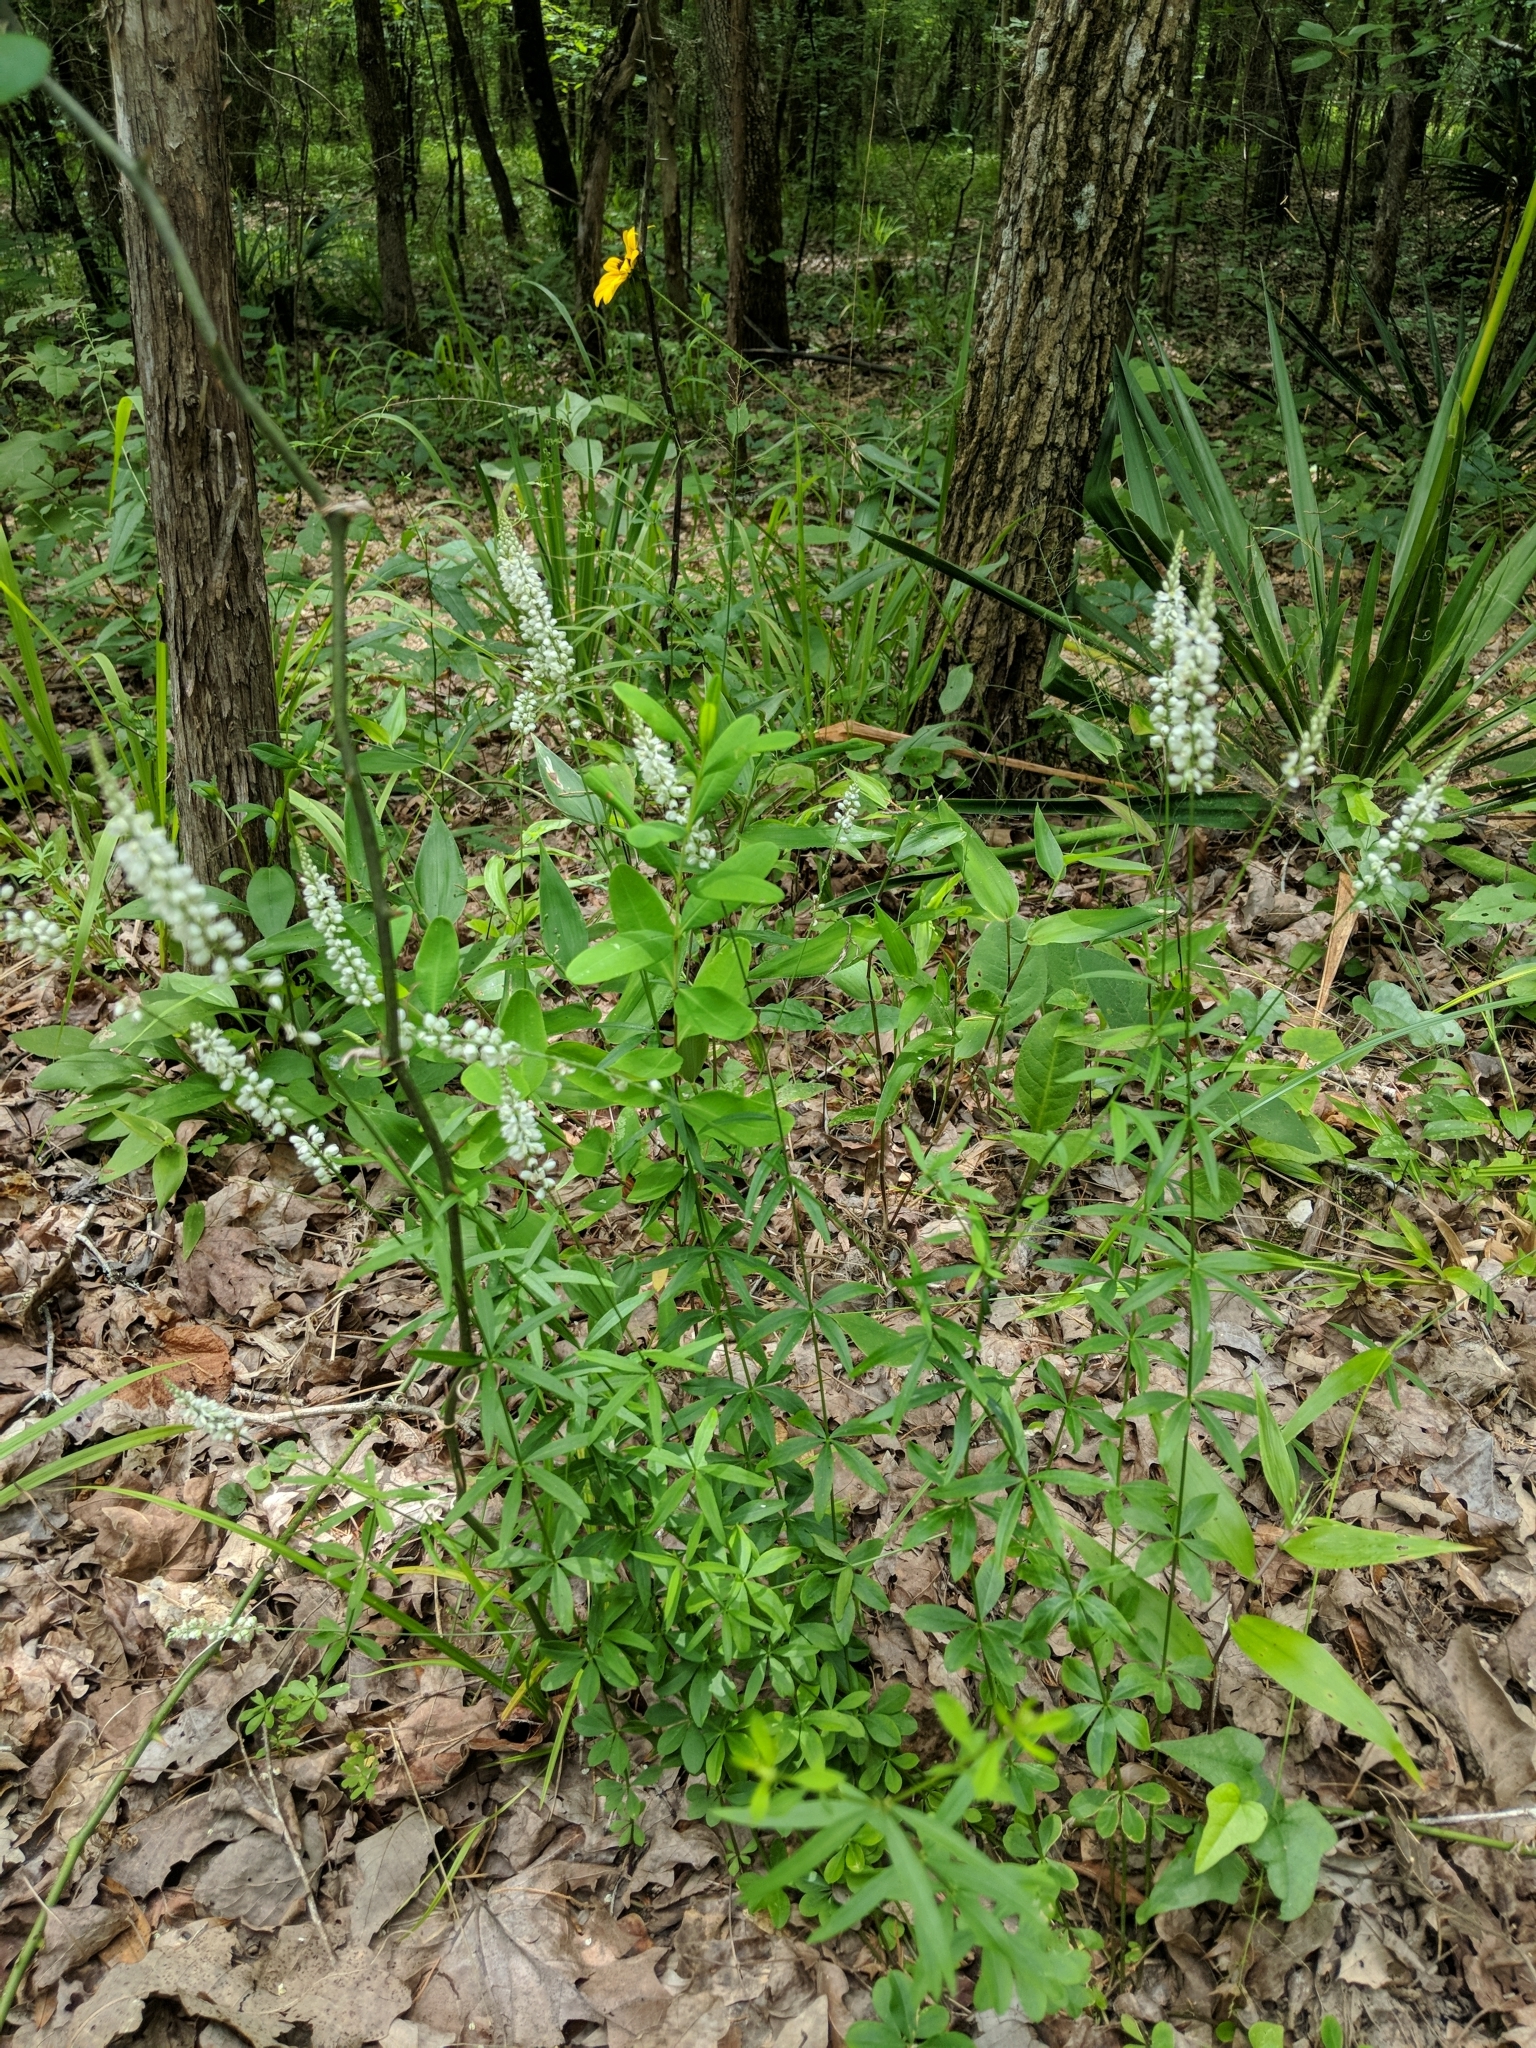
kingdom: Plantae
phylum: Tracheophyta
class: Magnoliopsida
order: Fabales
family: Polygalaceae
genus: Polygala
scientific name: Polygala boykinii
